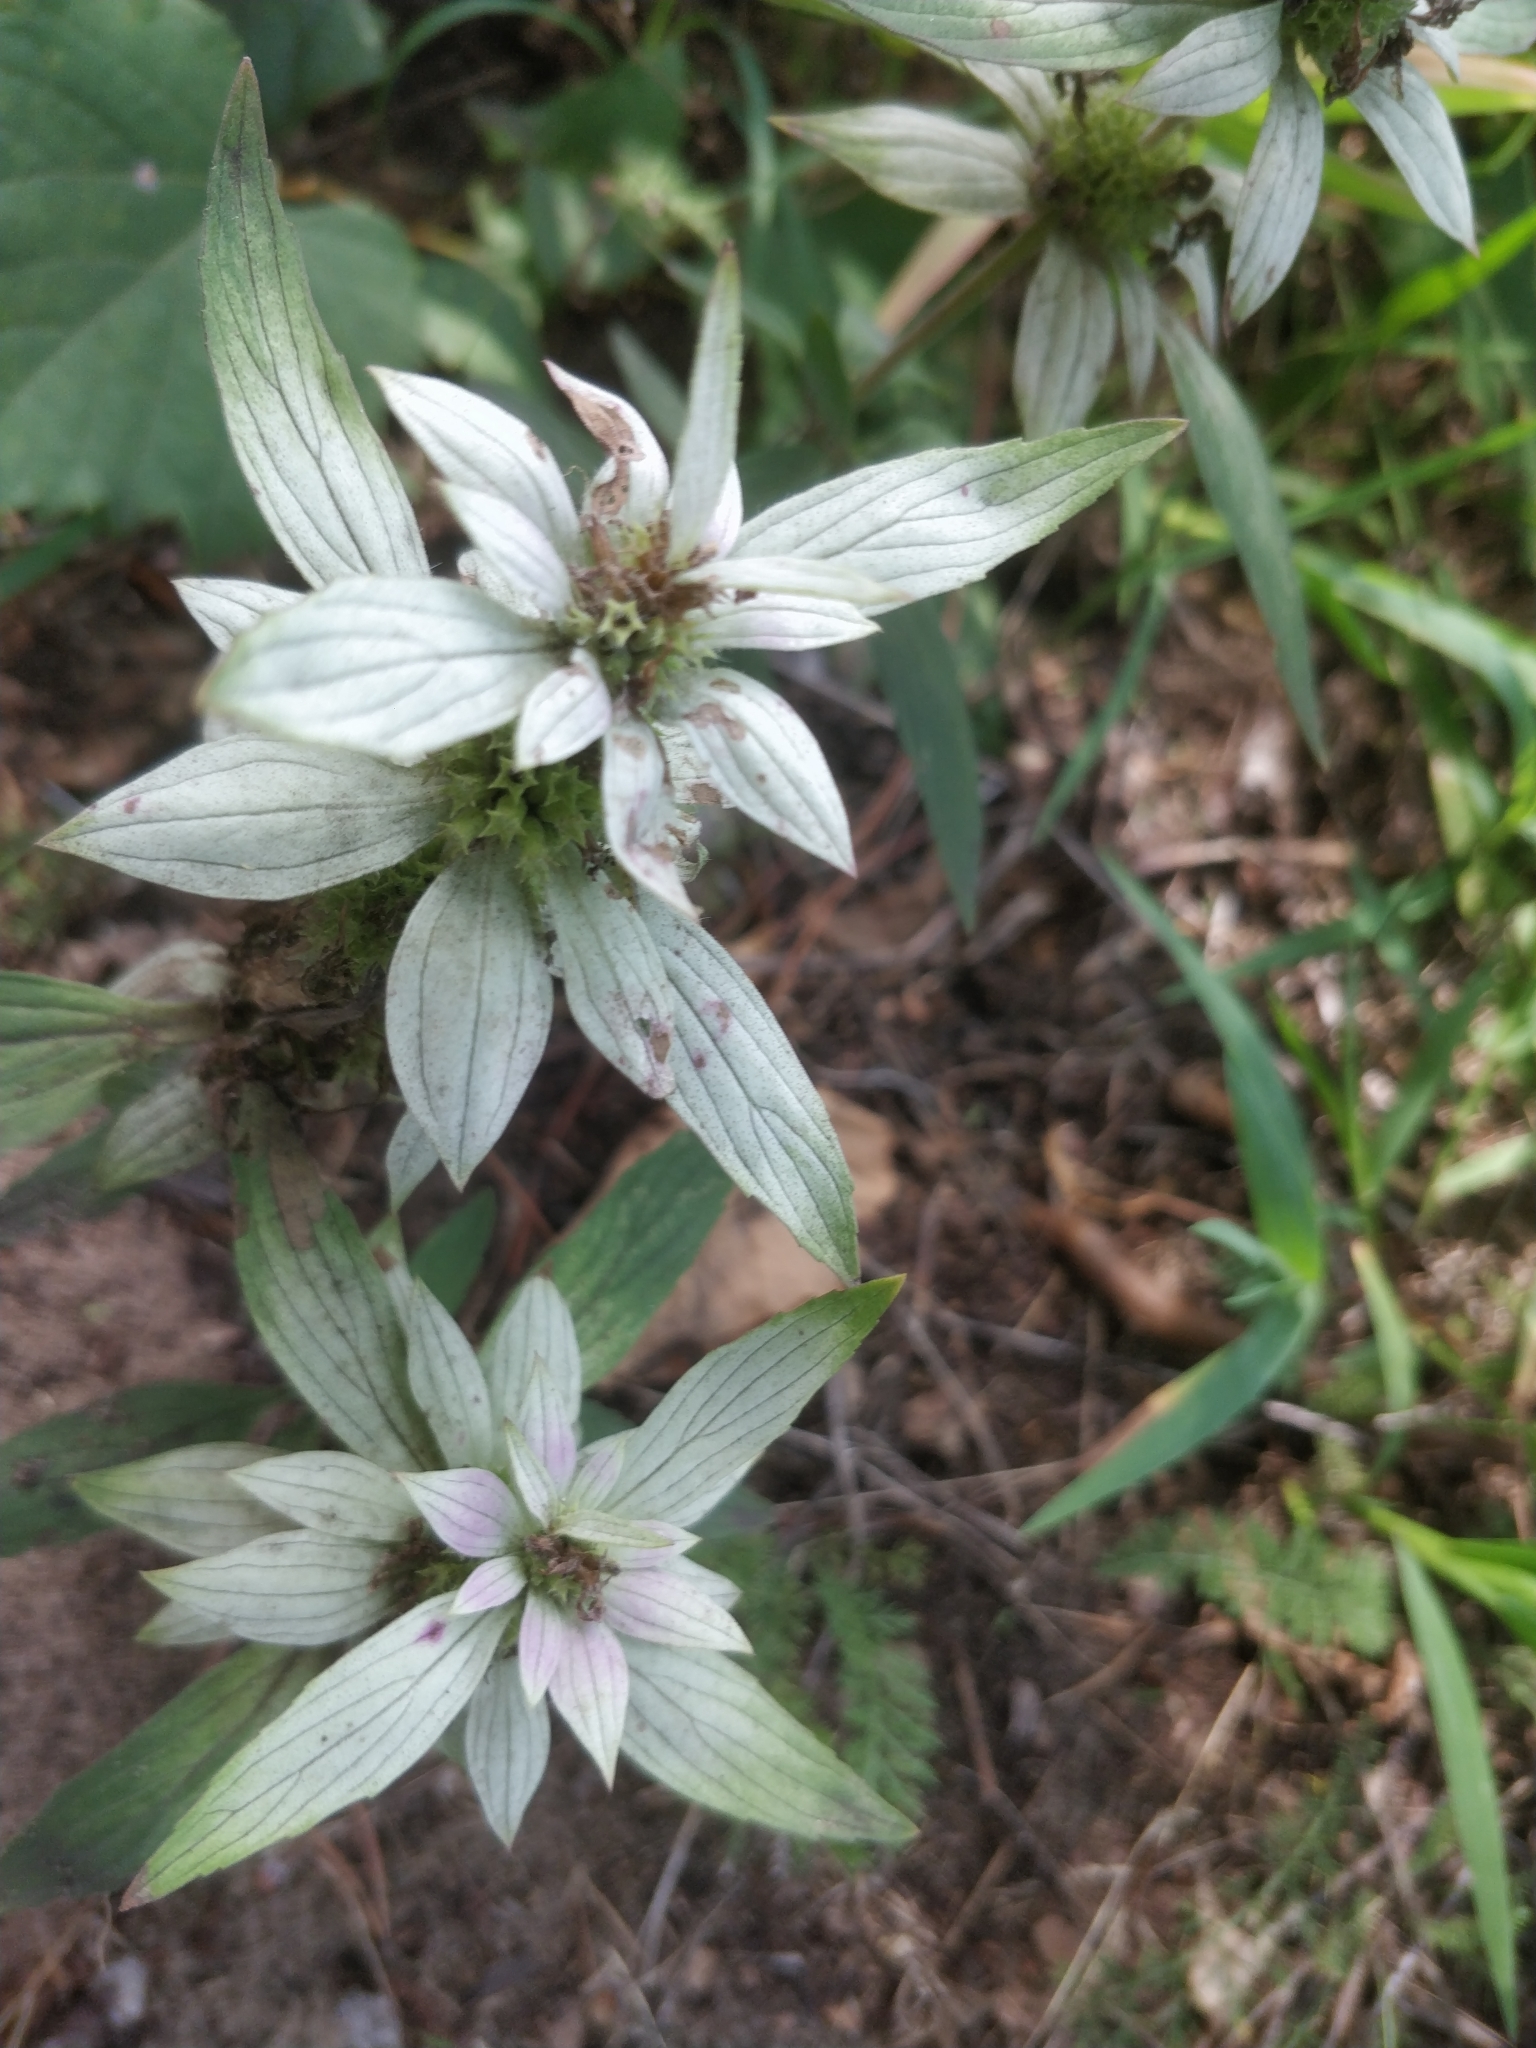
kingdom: Plantae
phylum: Tracheophyta
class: Magnoliopsida
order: Lamiales
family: Lamiaceae
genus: Monarda
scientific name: Monarda punctata
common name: Dotted monarda
